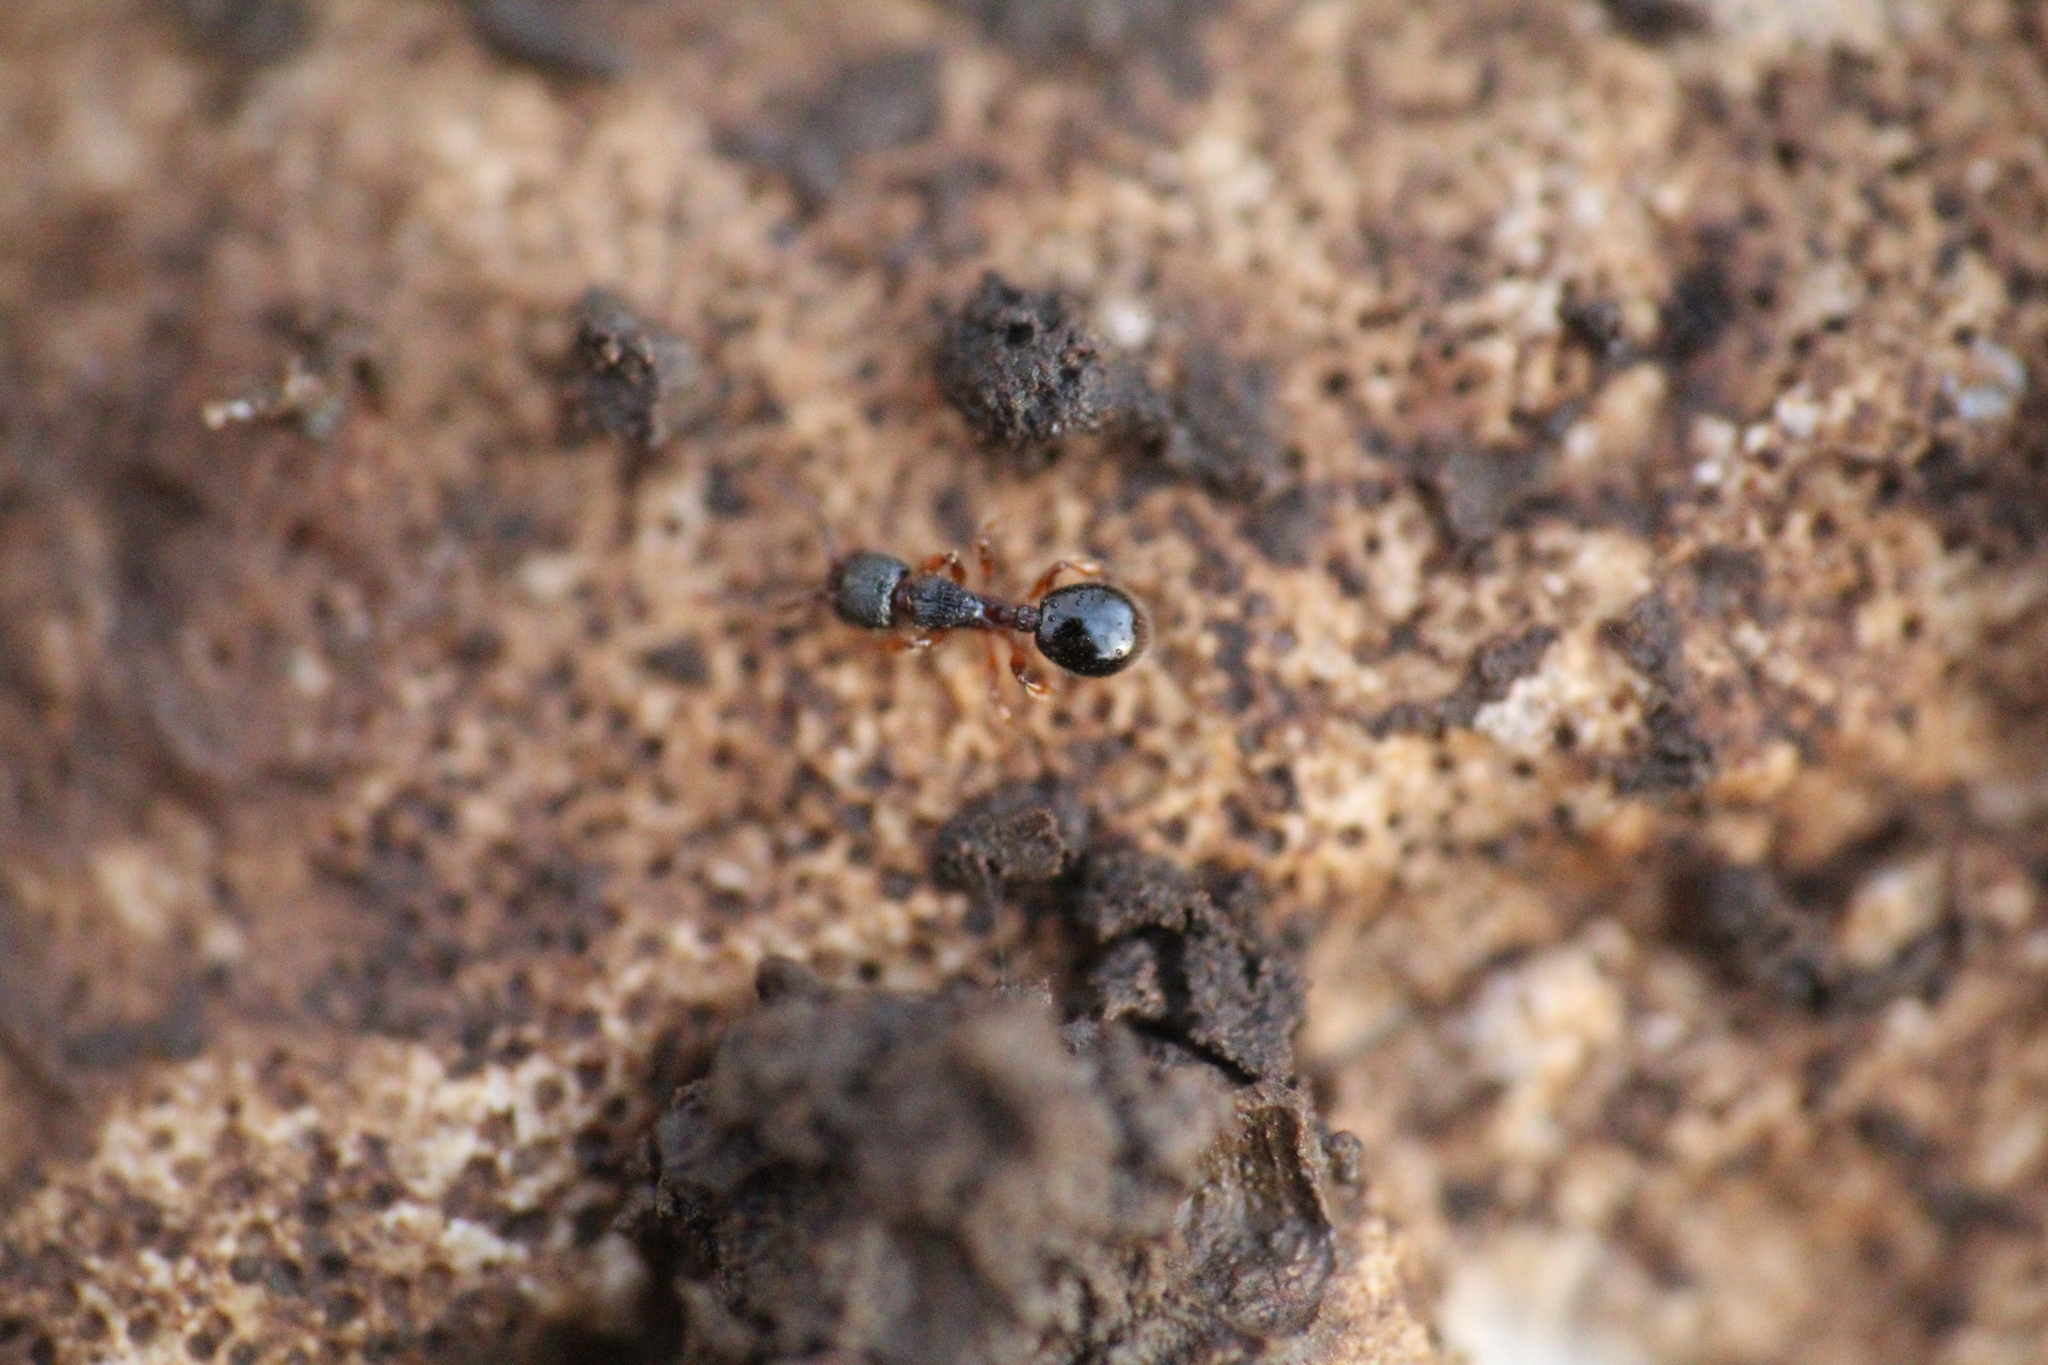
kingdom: Animalia
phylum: Arthropoda
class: Insecta
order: Hymenoptera
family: Formicidae
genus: Myrmecina
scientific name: Myrmecina graminicola
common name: Grass ant
